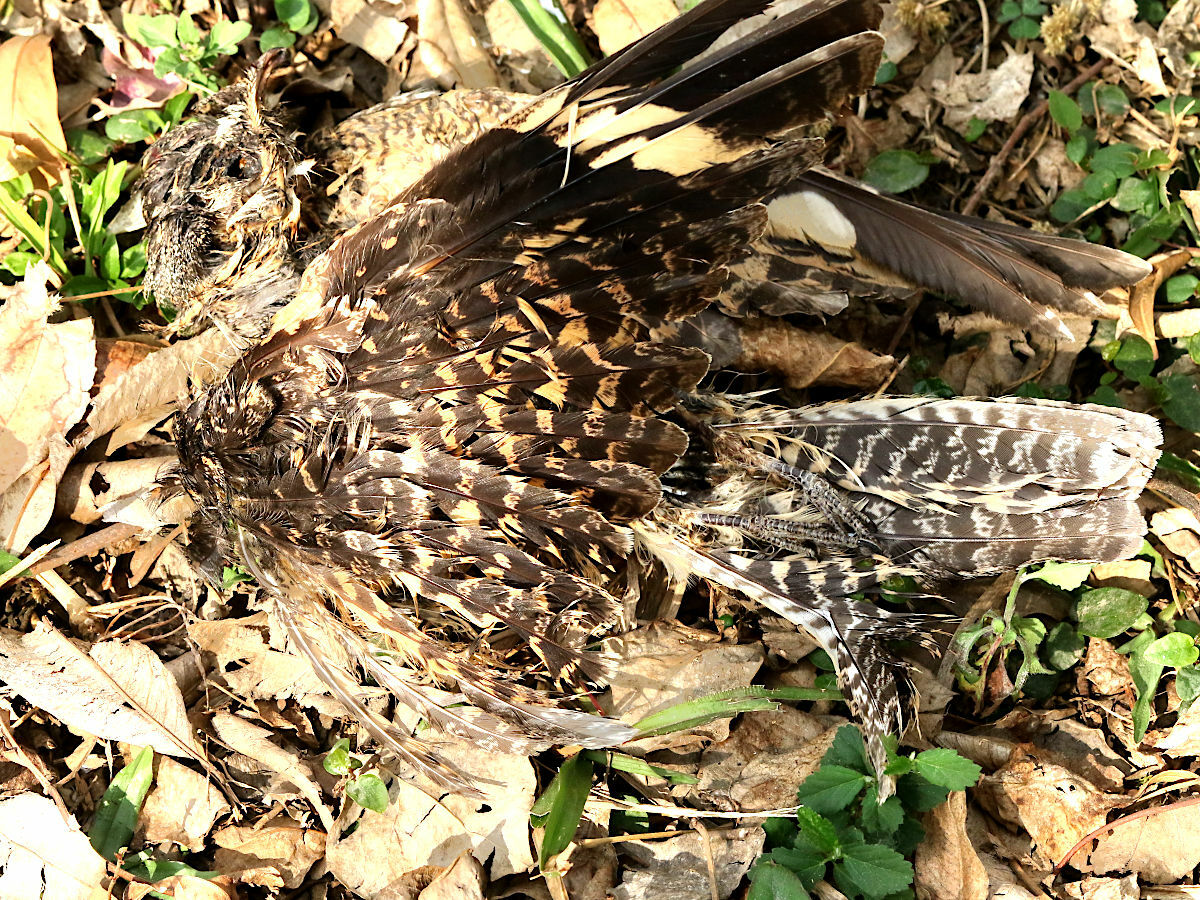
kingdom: Animalia
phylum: Chordata
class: Aves
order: Caprimulgiformes
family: Caprimulgidae
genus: Caprimulgus
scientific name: Caprimulgus affinis
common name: Savanna nightjar
